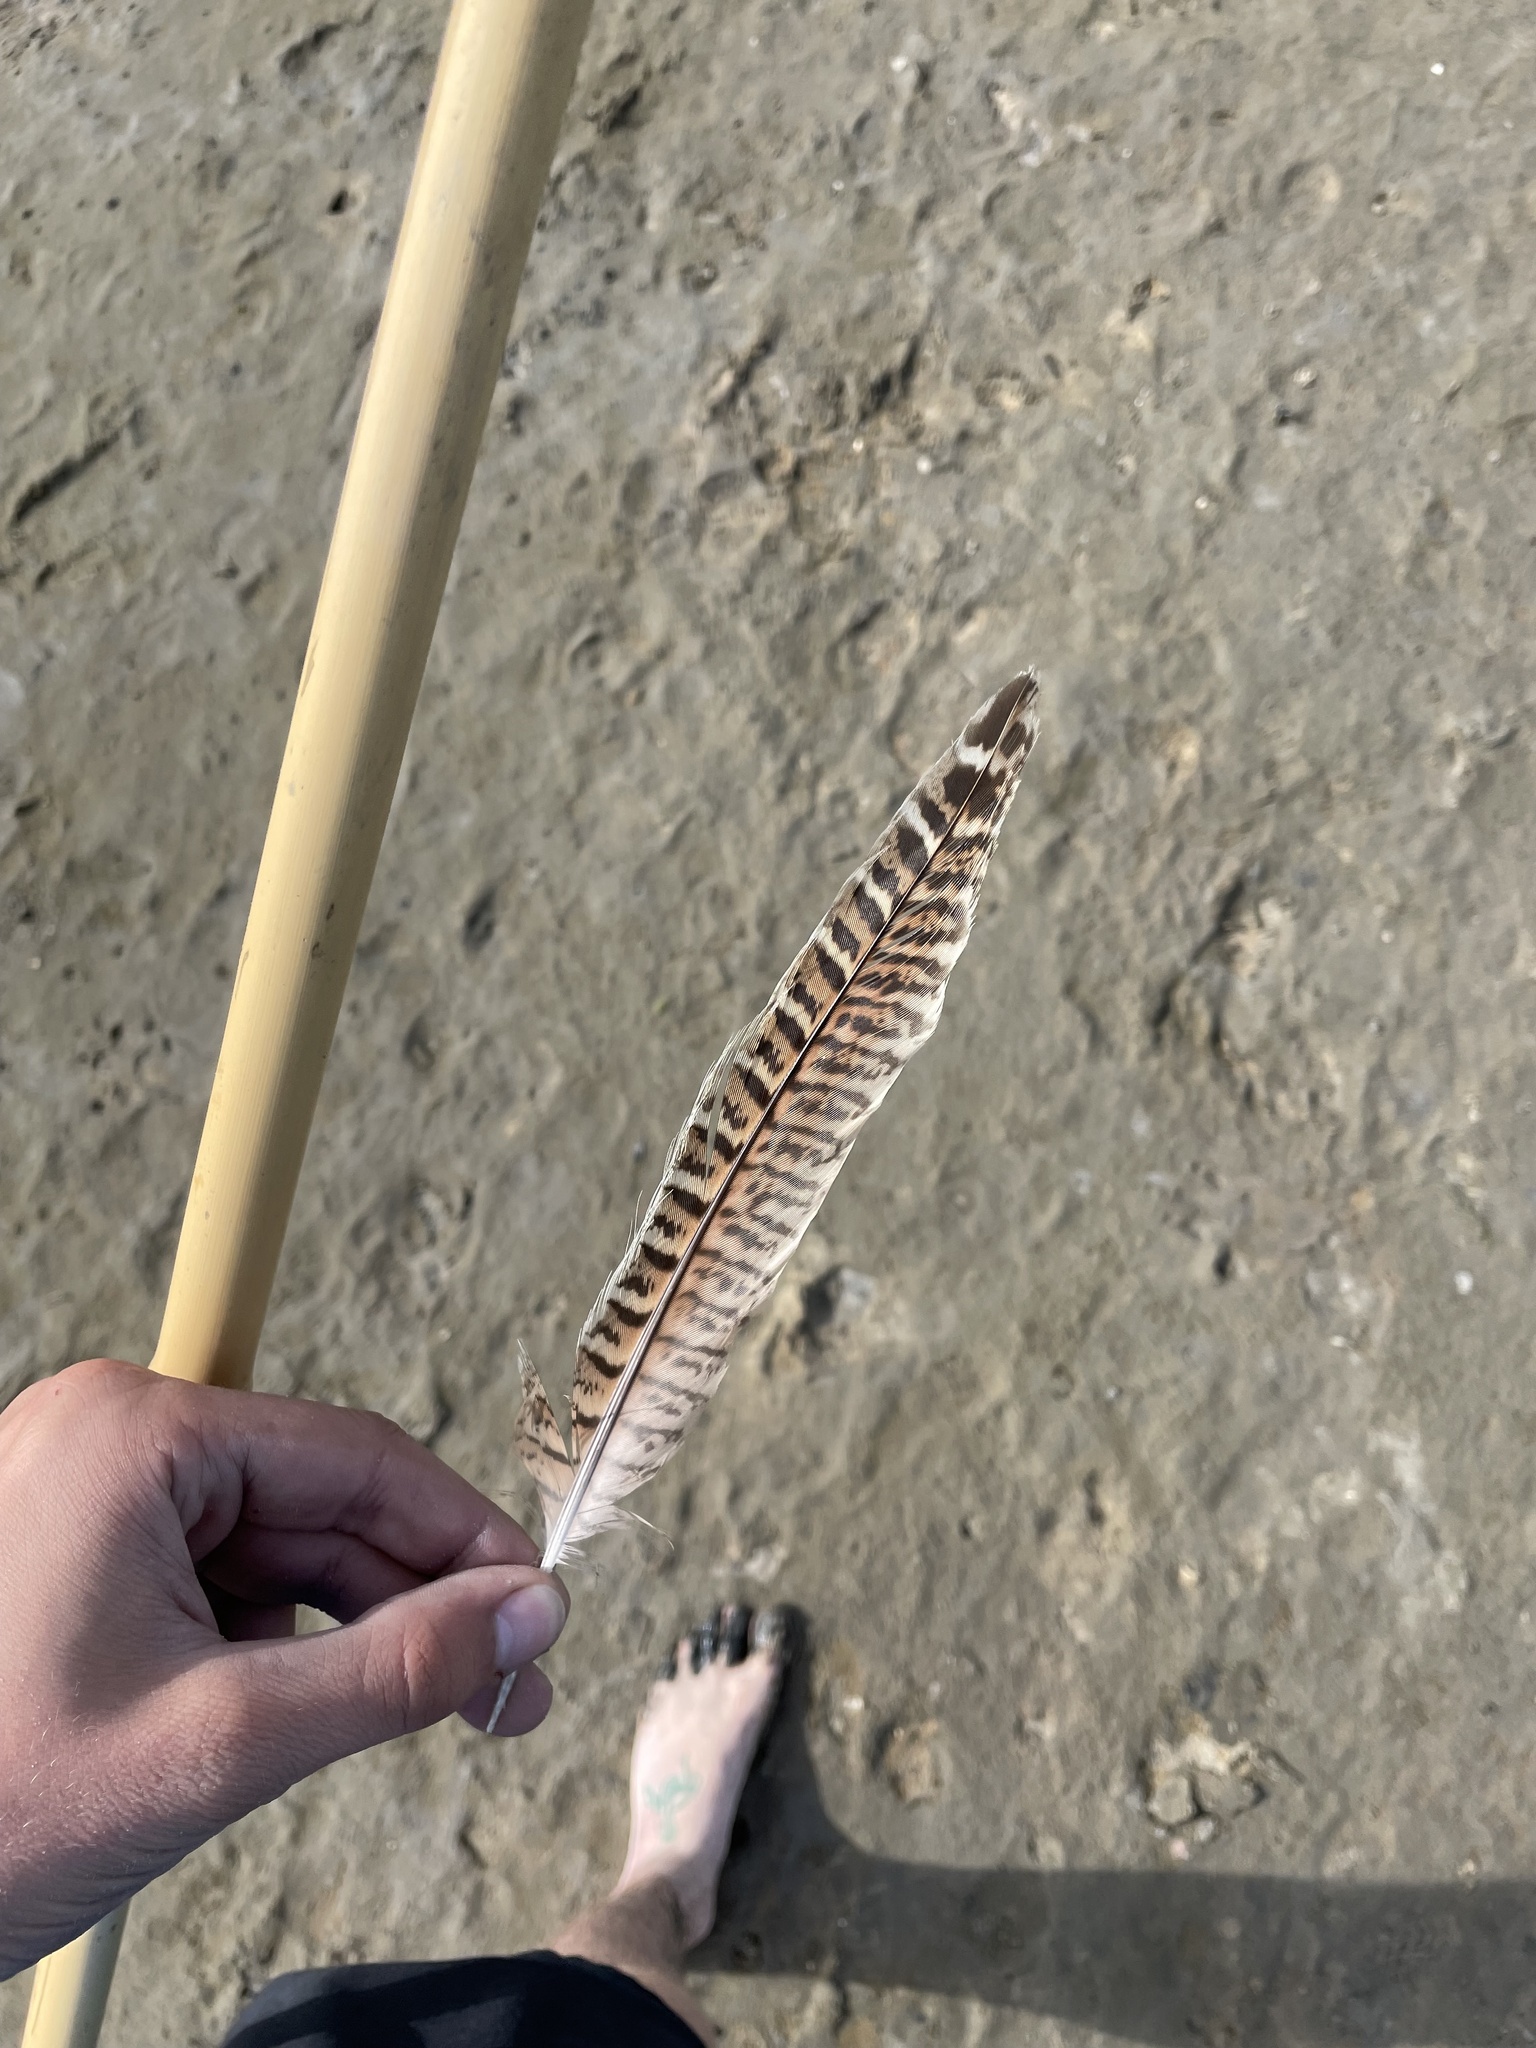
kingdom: Animalia
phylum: Chordata
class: Aves
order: Galliformes
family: Phasianidae
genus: Phasianus
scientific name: Phasianus colchicus
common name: Common pheasant
